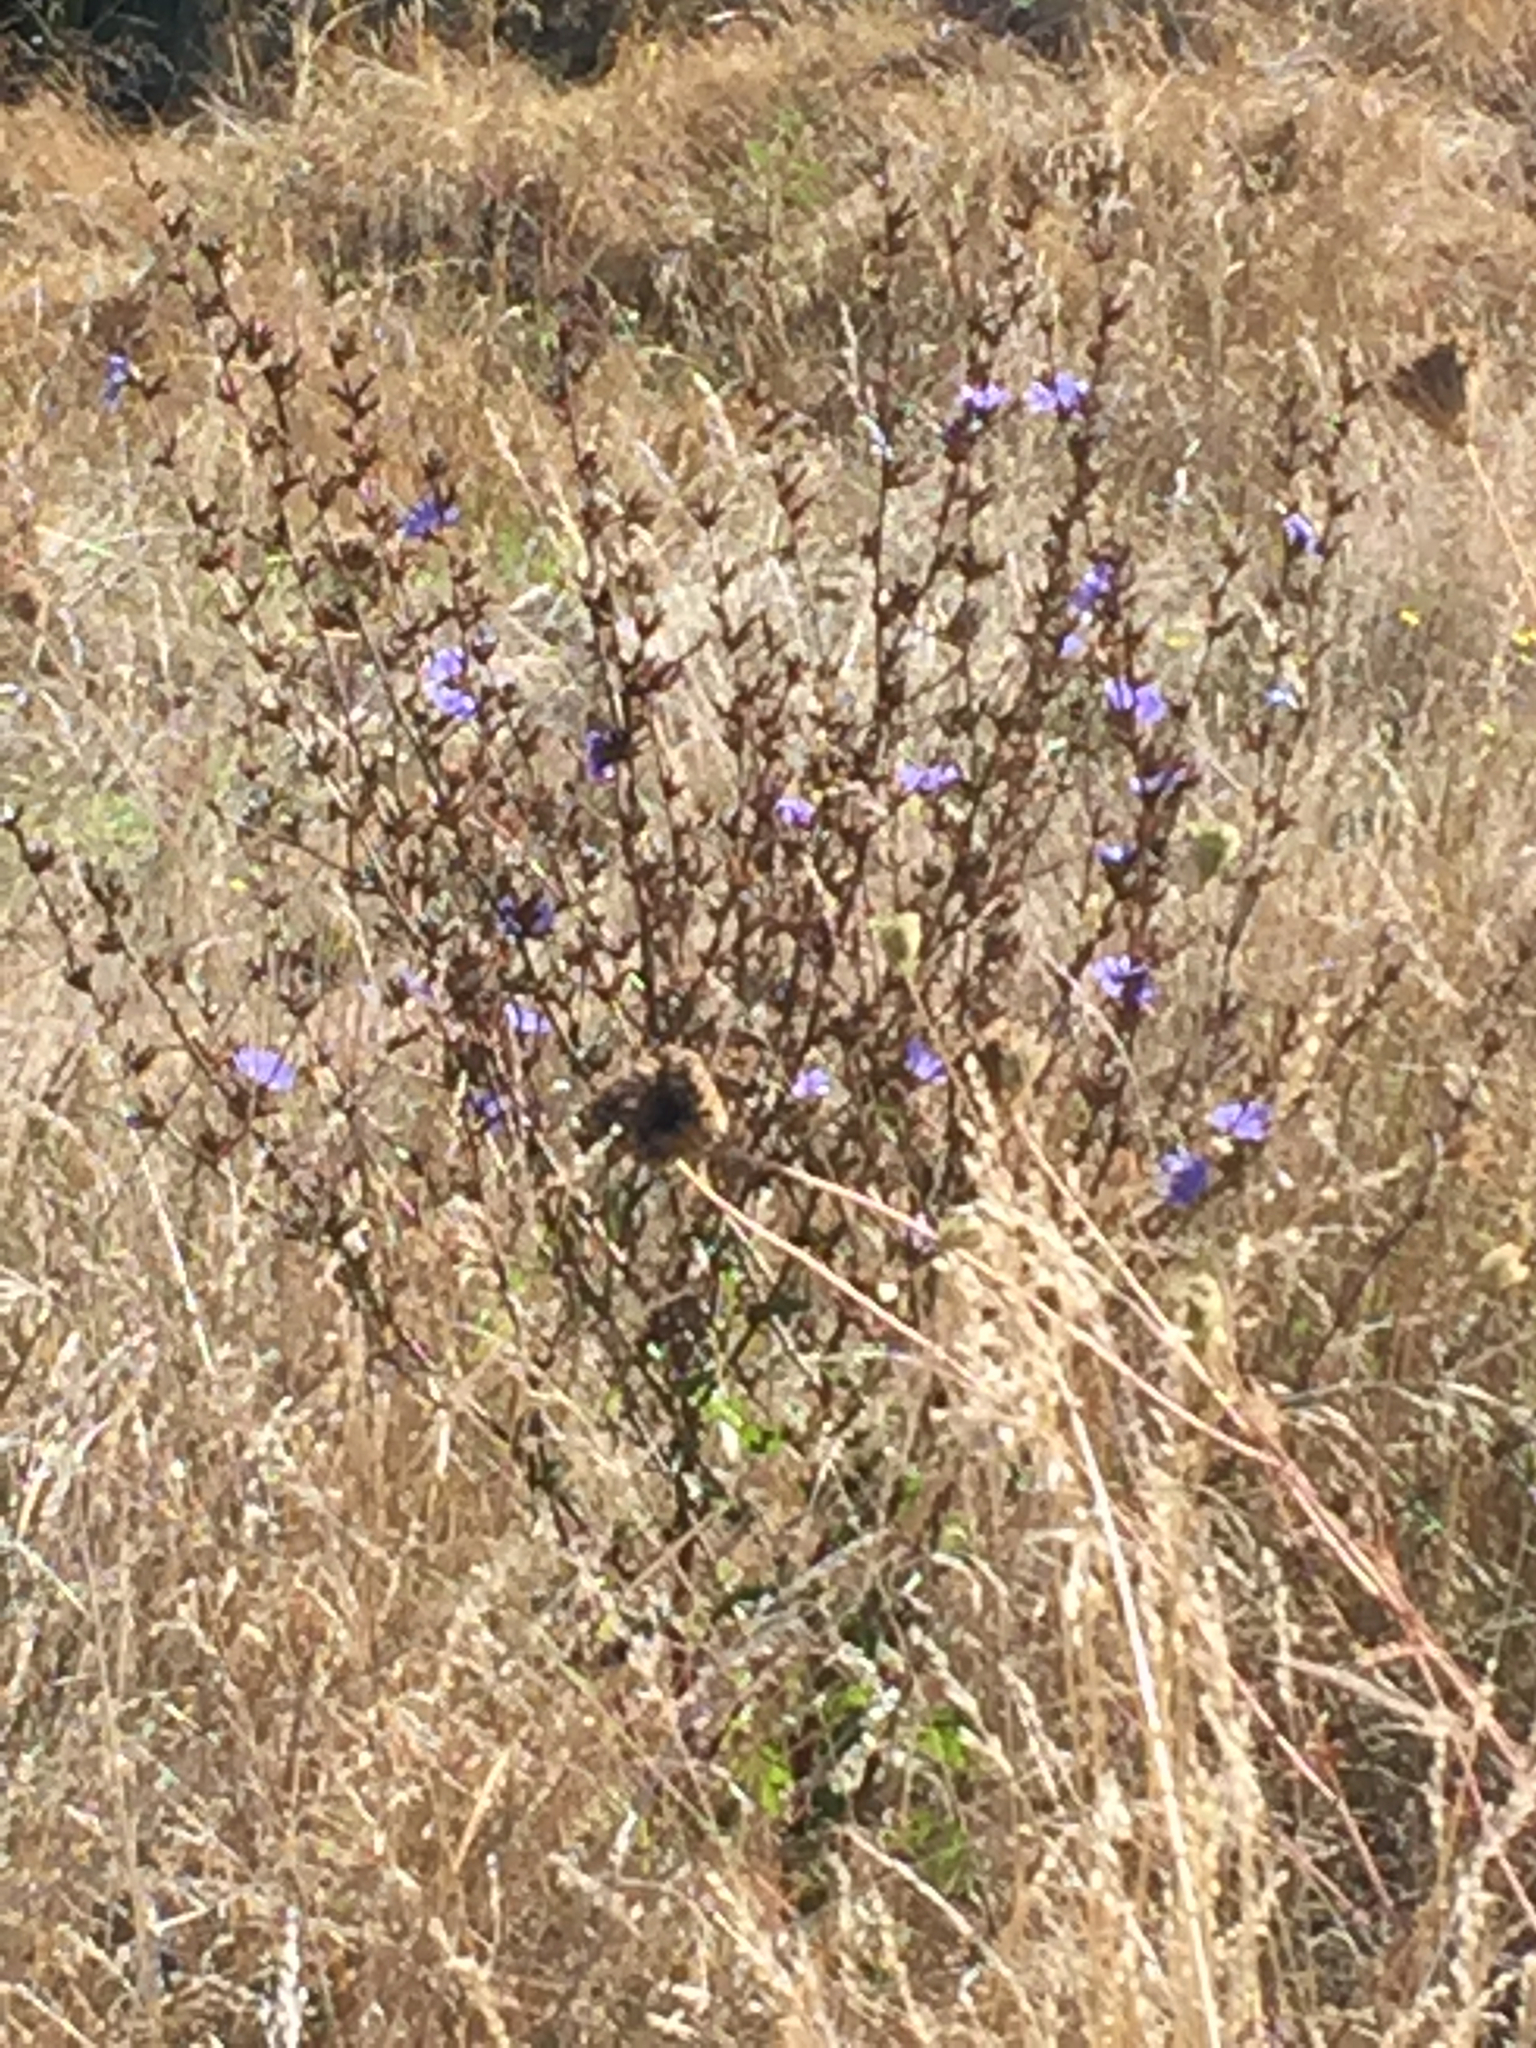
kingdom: Plantae
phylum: Tracheophyta
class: Magnoliopsida
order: Asterales
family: Asteraceae
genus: Cichorium
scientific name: Cichorium intybus
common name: Chicory
